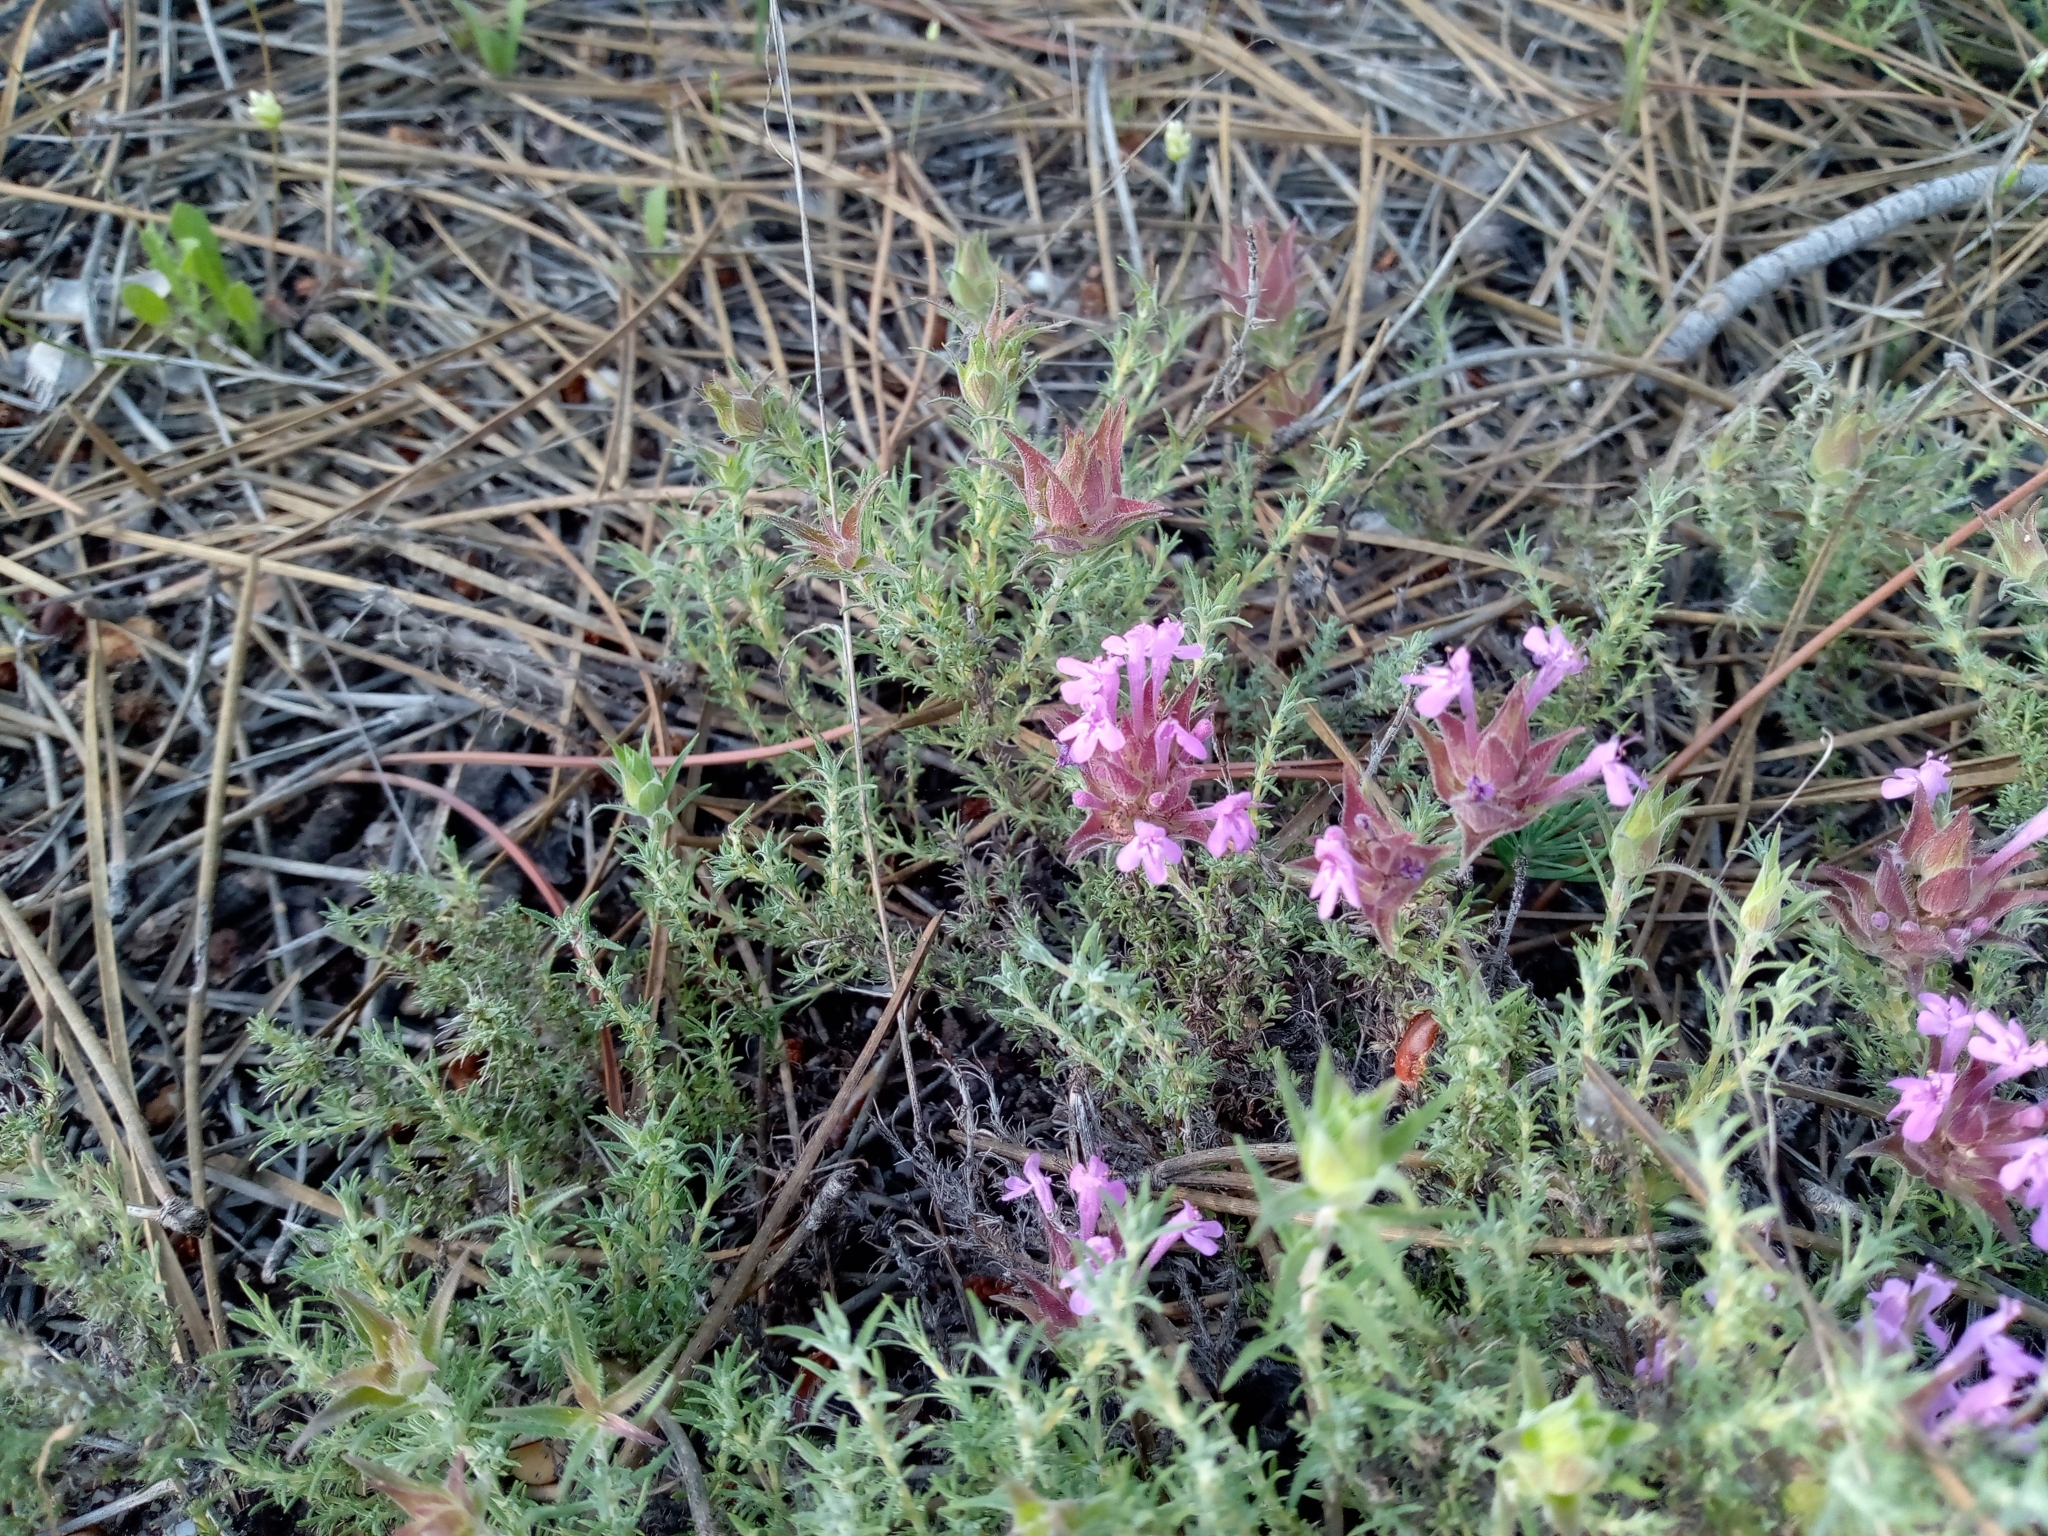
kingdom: Plantae
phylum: Tracheophyta
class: Magnoliopsida
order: Lamiales
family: Lamiaceae
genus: Thymus
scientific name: Thymus lotocephalus
